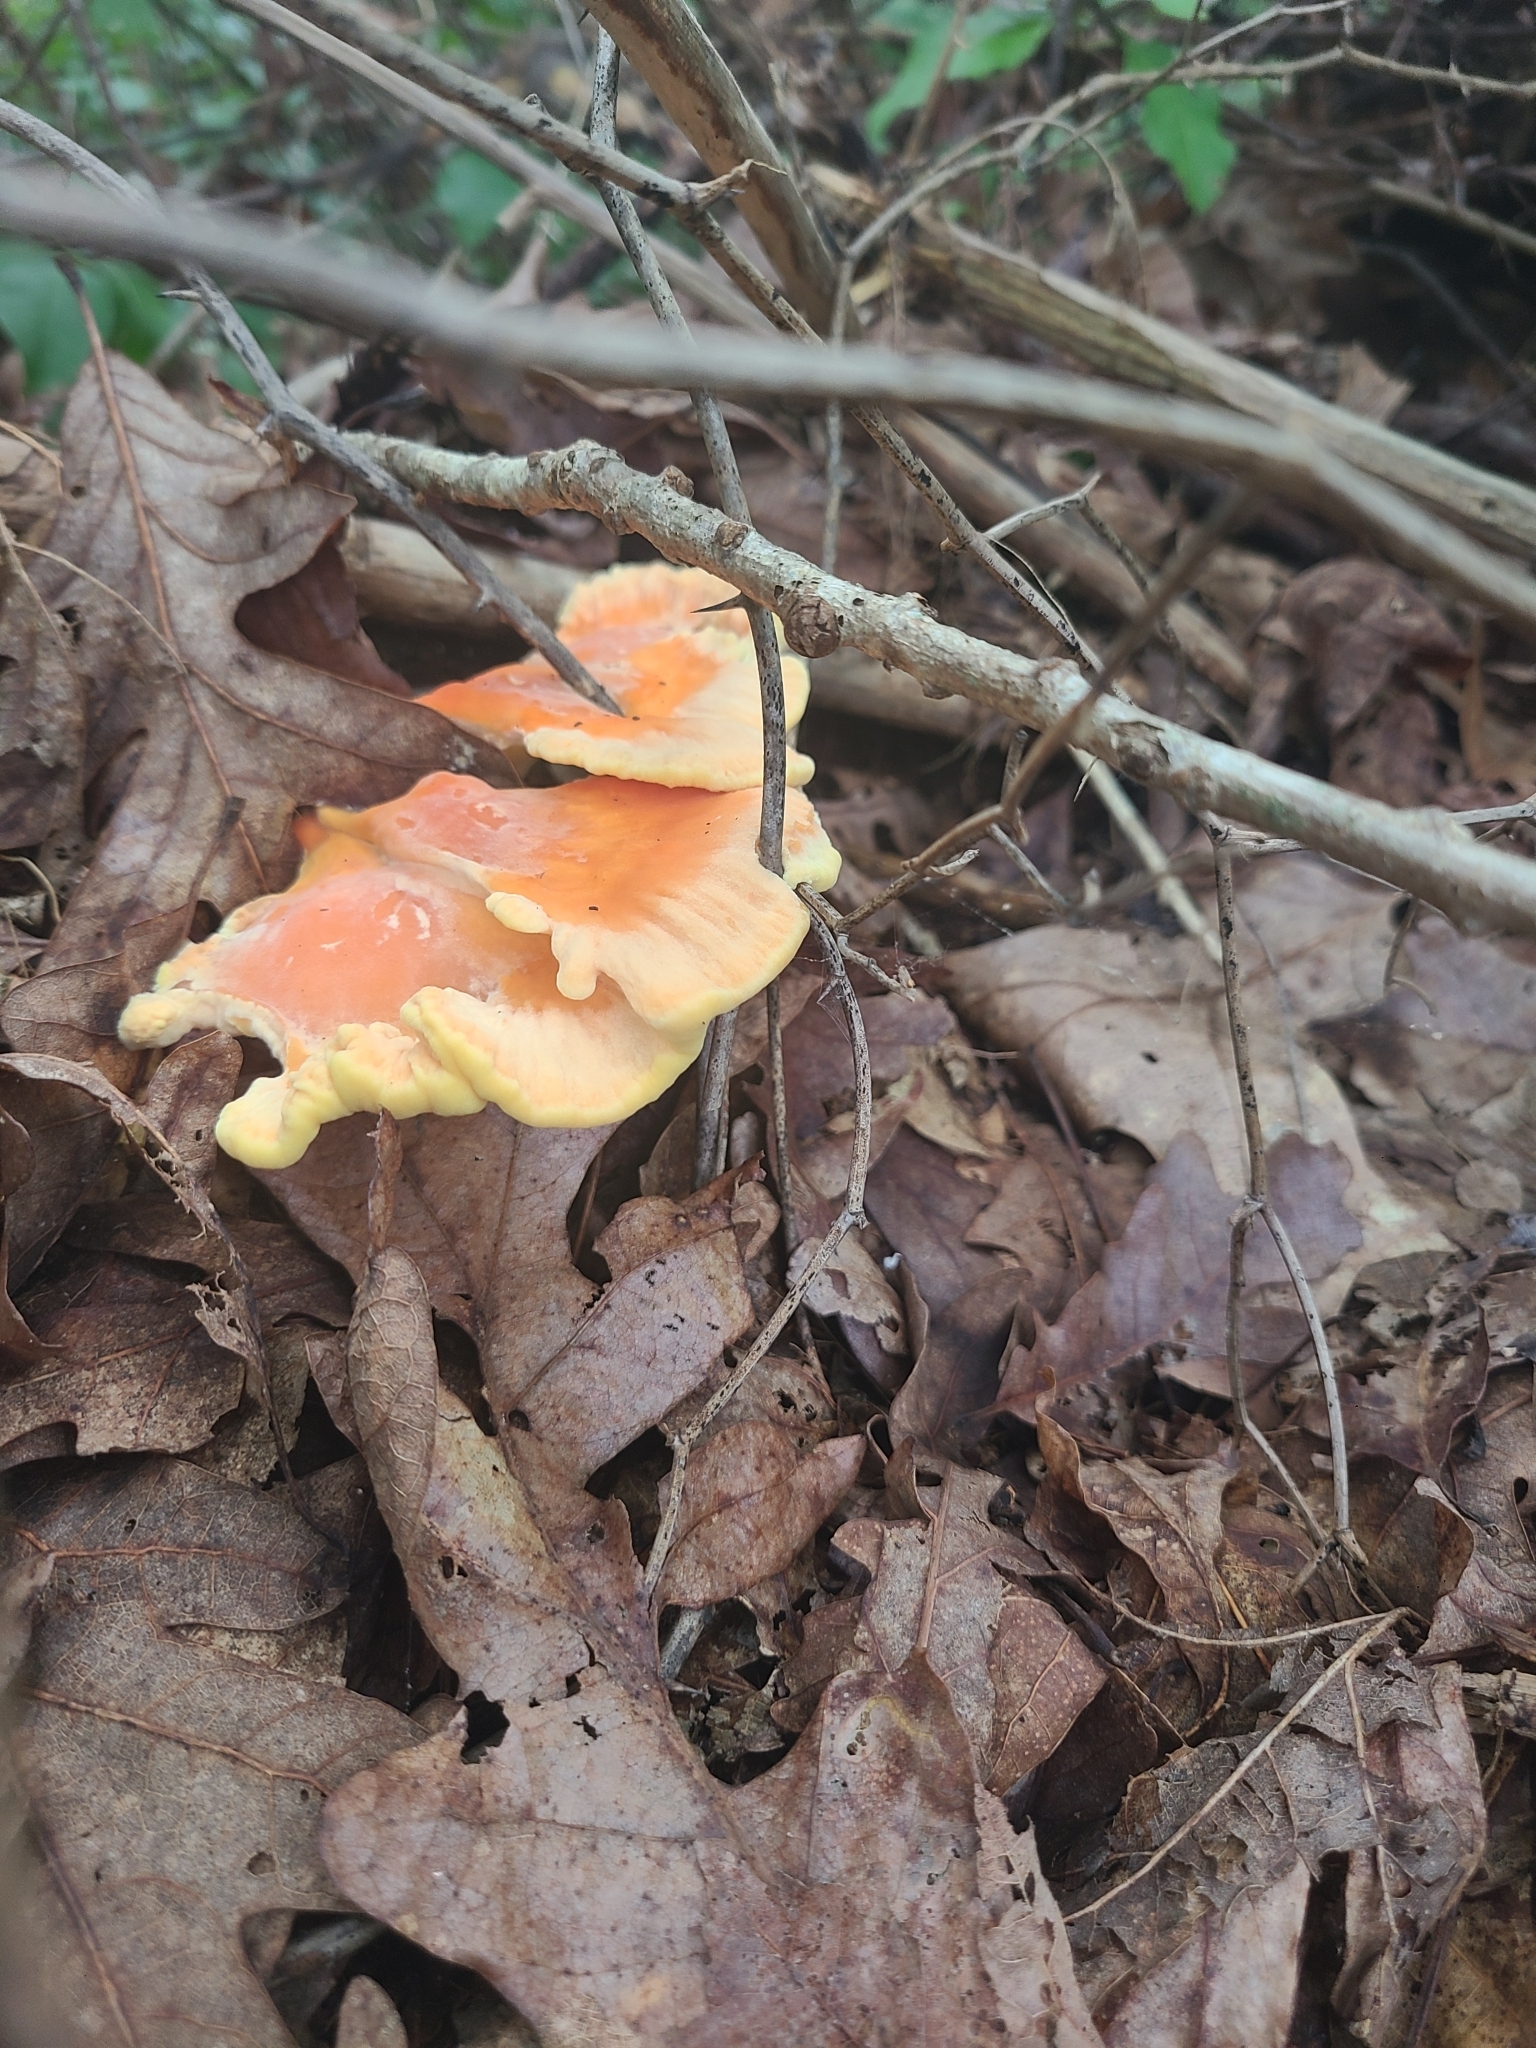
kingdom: Fungi
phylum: Basidiomycota
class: Agaricomycetes
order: Polyporales
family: Laetiporaceae
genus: Laetiporus
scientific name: Laetiporus sulphureus
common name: Chicken of the woods
